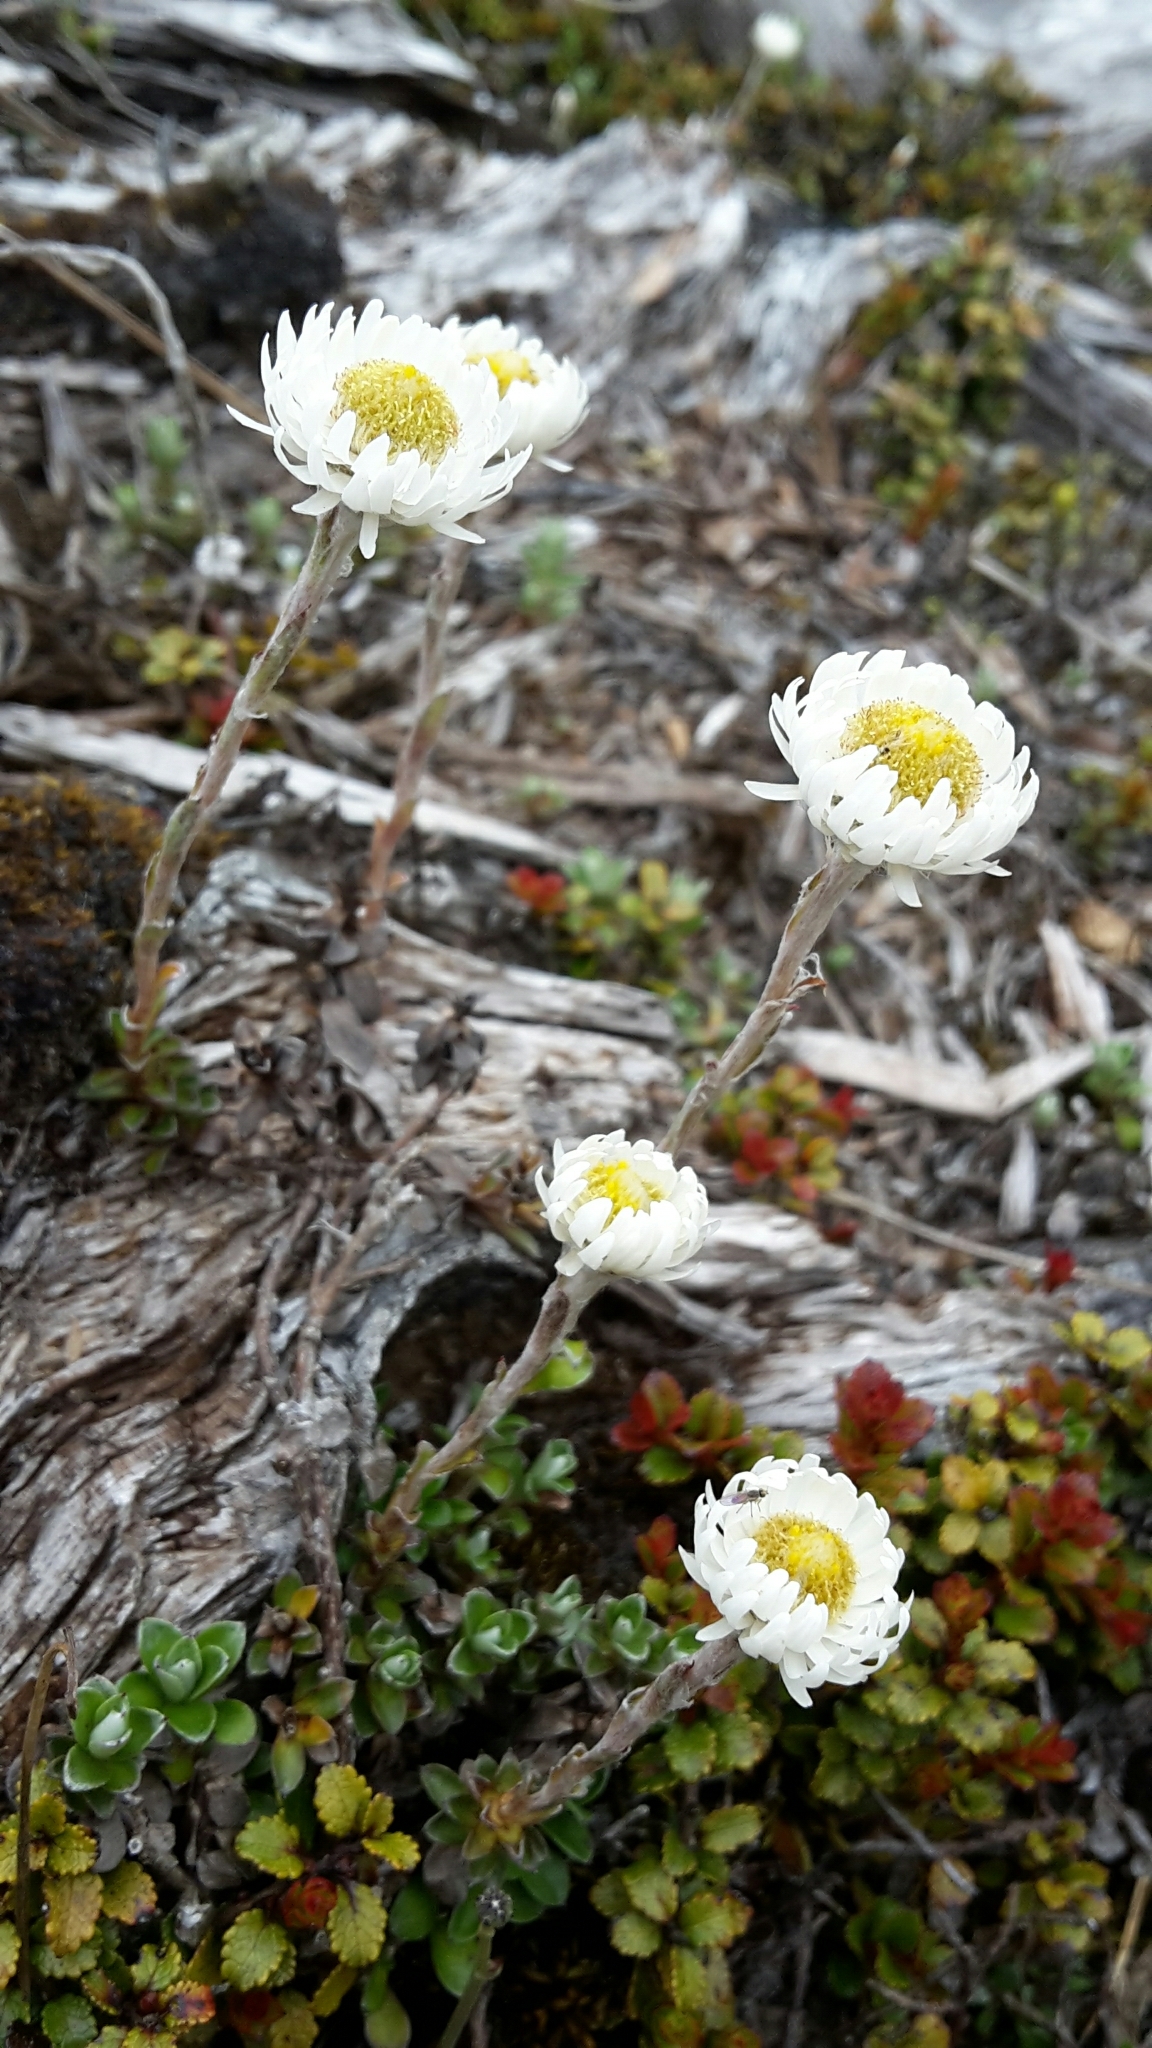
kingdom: Plantae
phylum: Tracheophyta
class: Magnoliopsida
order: Asterales
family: Asteraceae
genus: Anaphalioides
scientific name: Anaphalioides bellidioides
